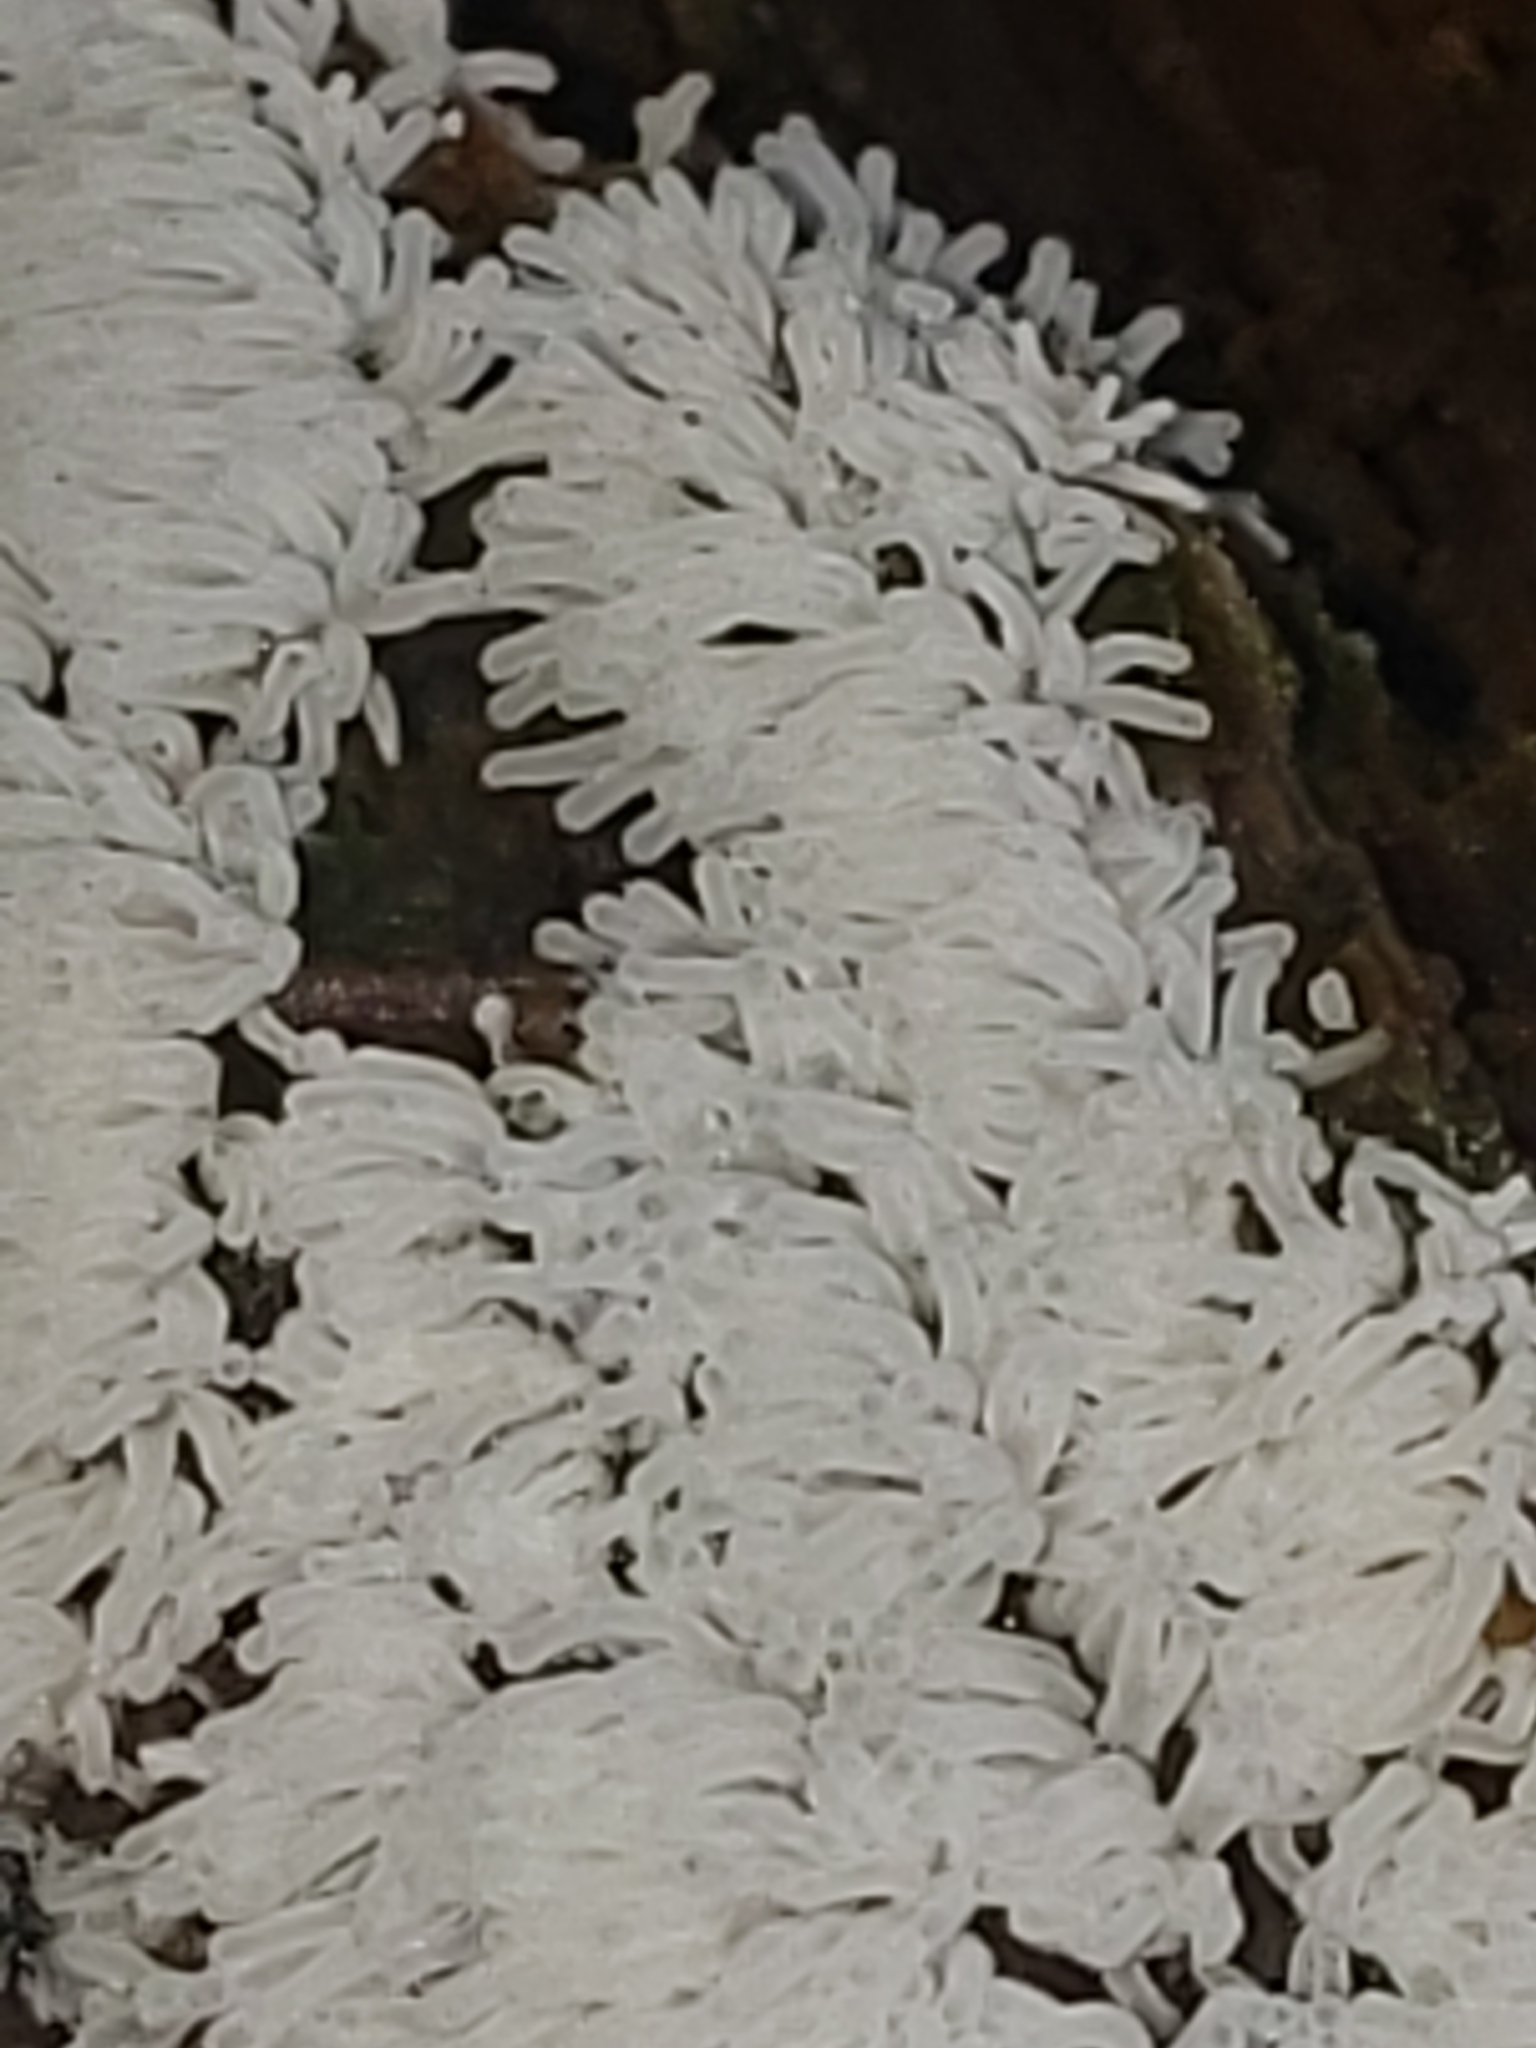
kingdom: Protozoa
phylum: Mycetozoa
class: Protosteliomycetes
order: Ceratiomyxales
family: Ceratiomyxaceae
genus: Ceratiomyxa
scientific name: Ceratiomyxa fruticulosa
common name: Honeycomb coral slime mold
